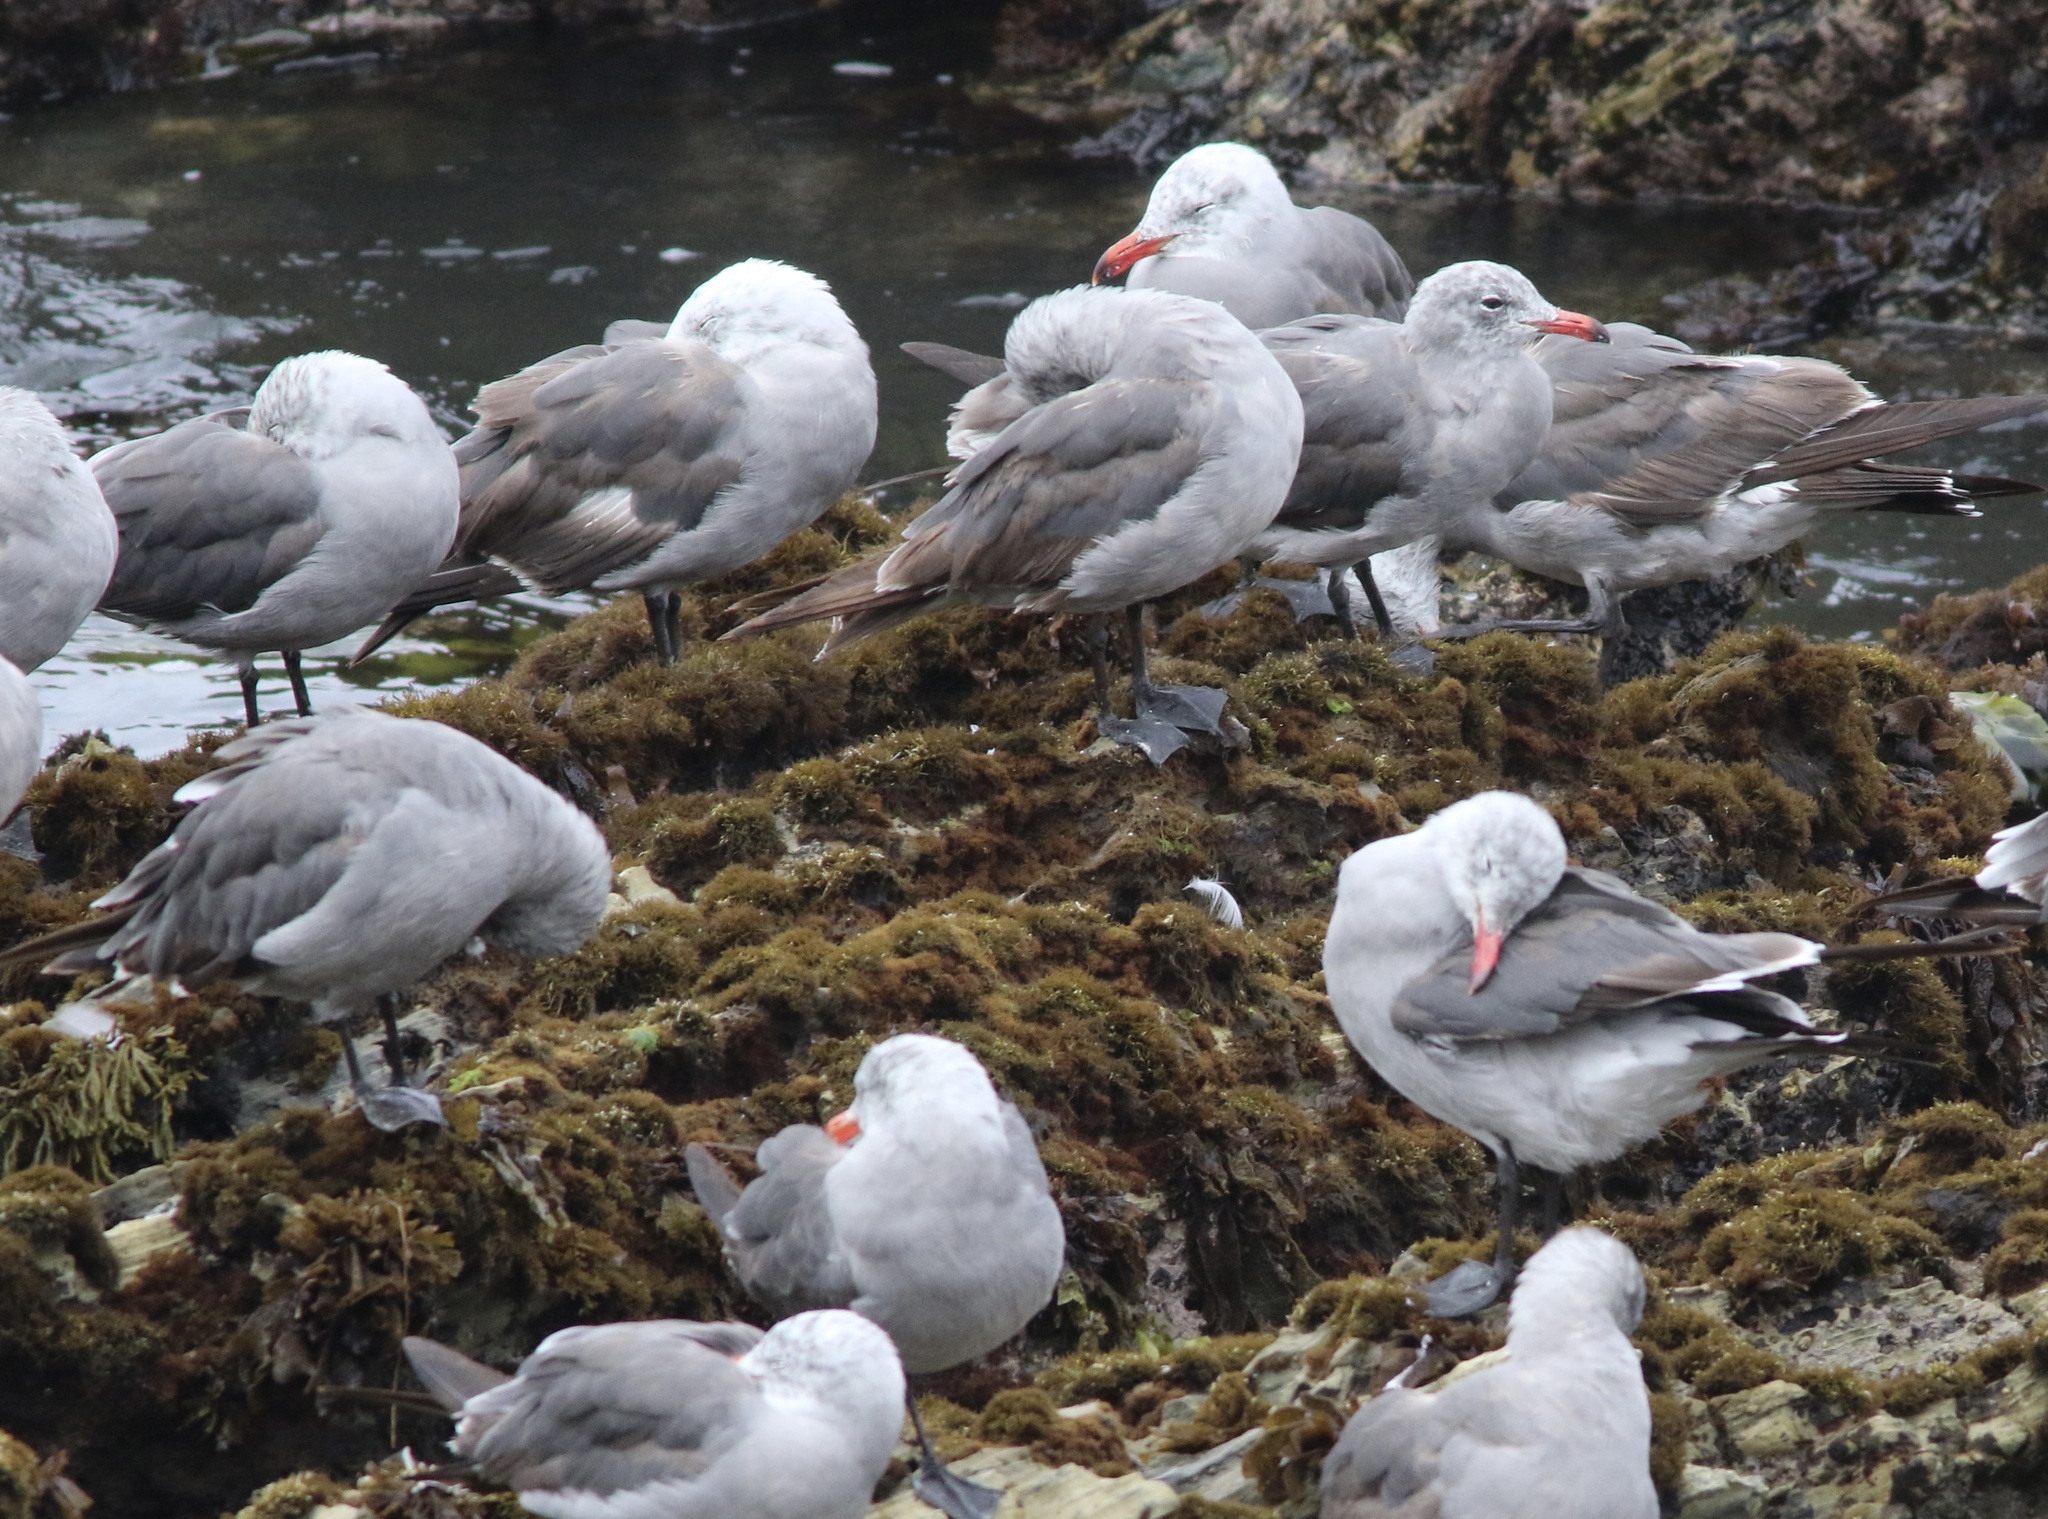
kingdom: Animalia
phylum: Chordata
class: Aves
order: Charadriiformes
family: Laridae
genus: Larus
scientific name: Larus heermanni
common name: Heermann's gull
